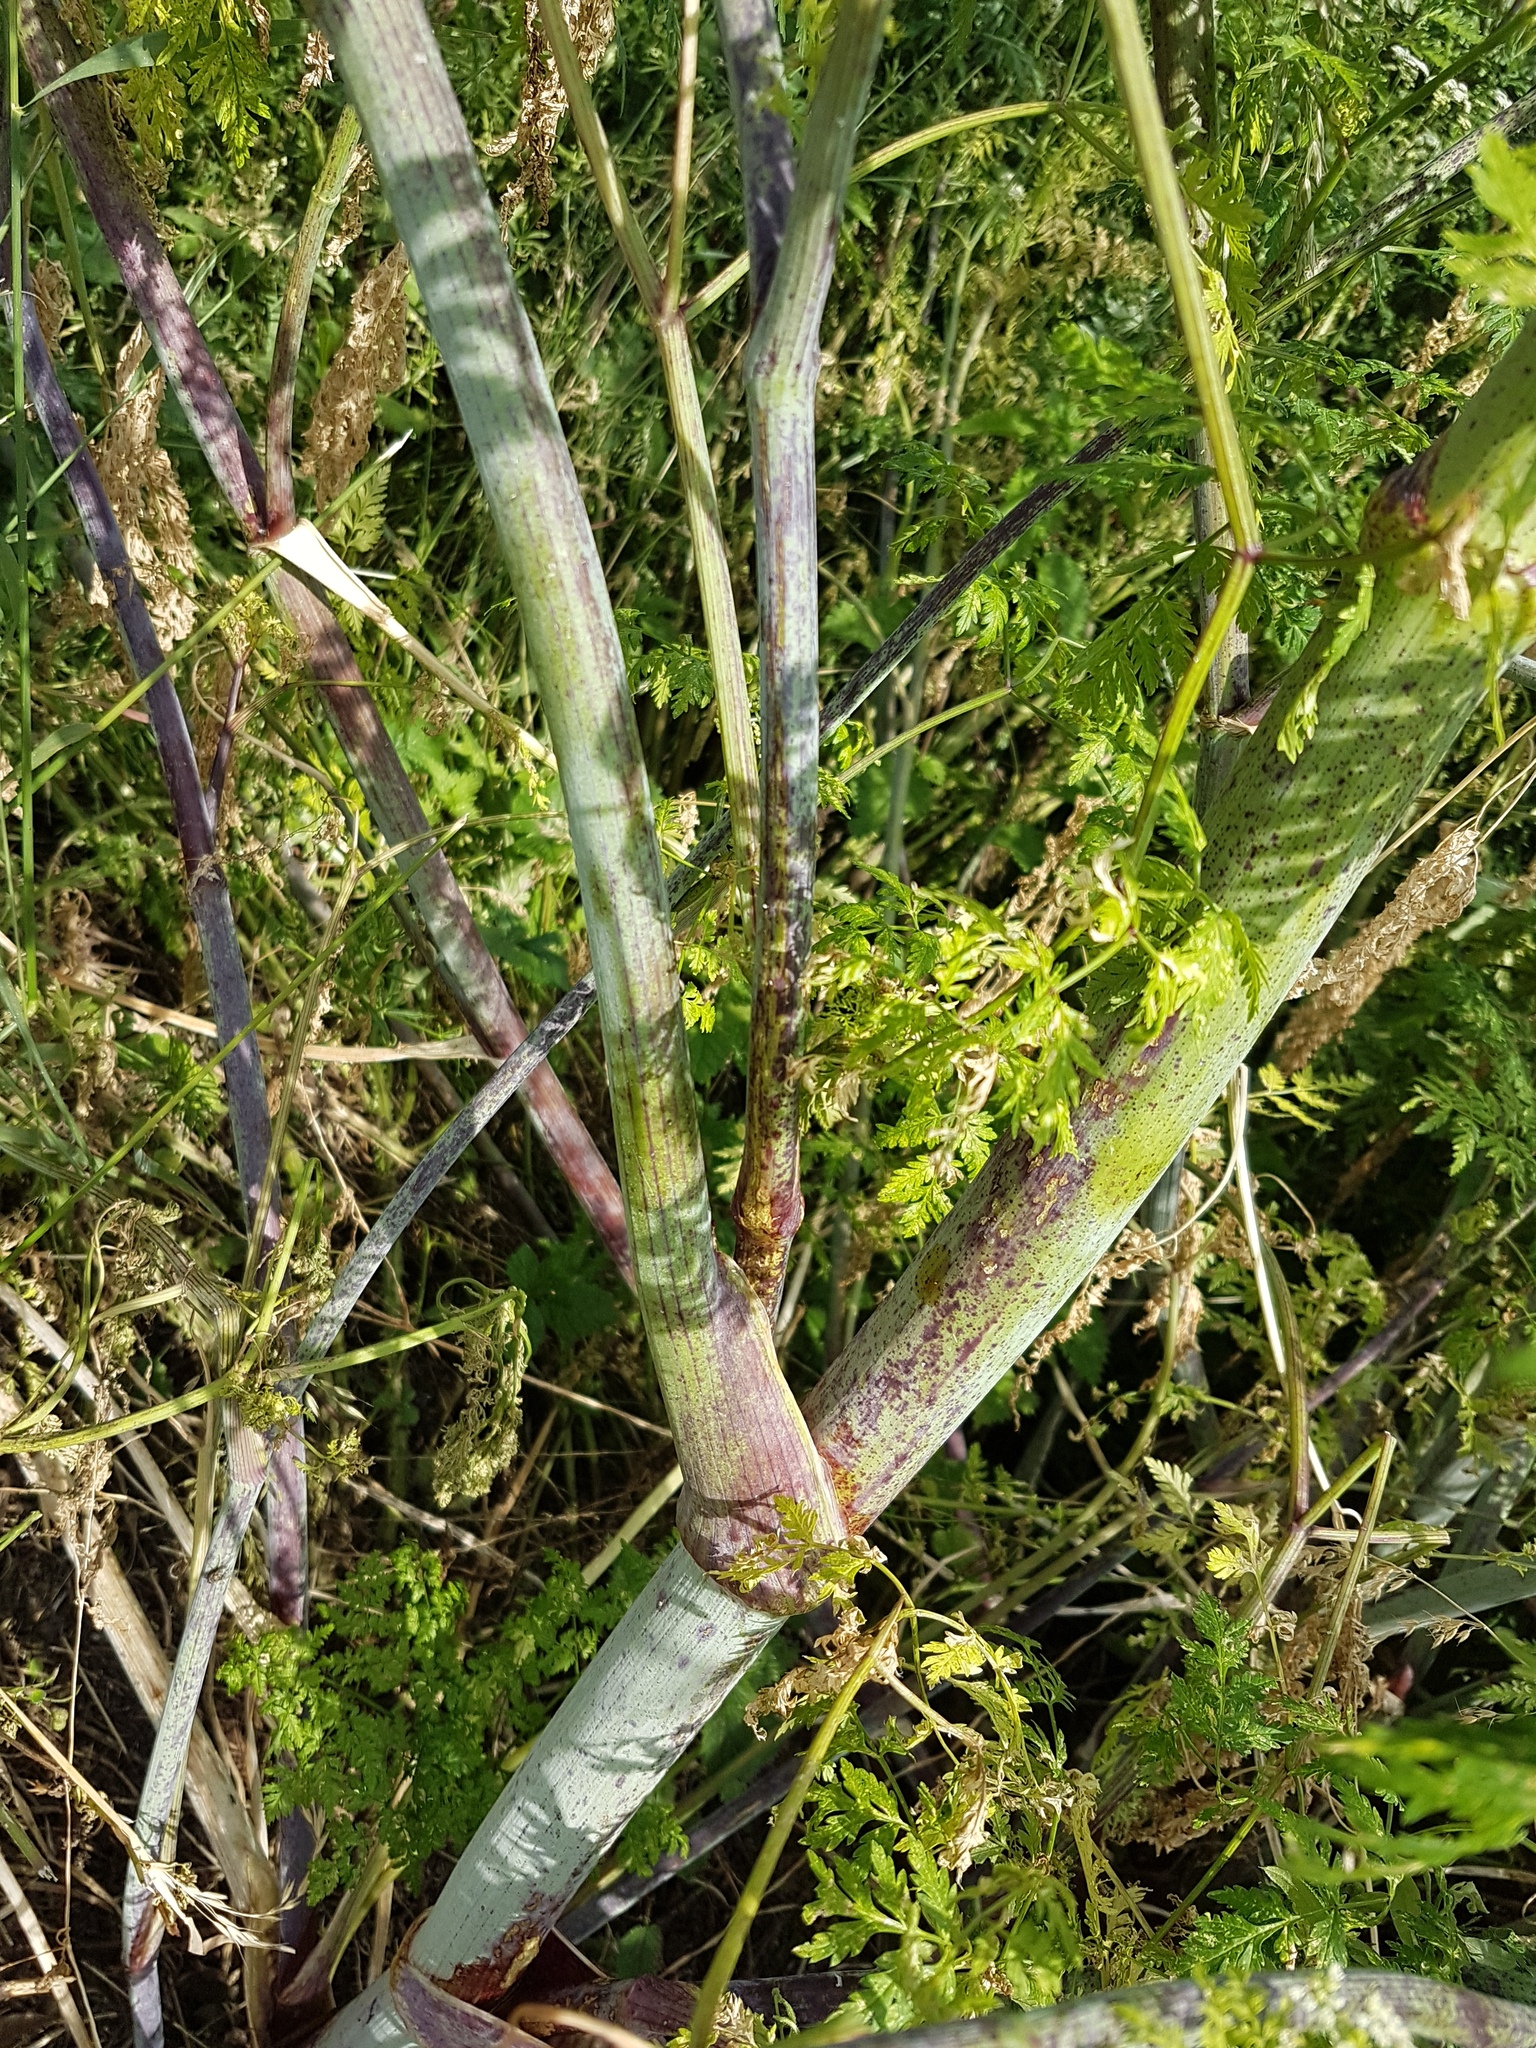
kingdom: Plantae
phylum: Tracheophyta
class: Magnoliopsida
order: Apiales
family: Apiaceae
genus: Conium
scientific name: Conium maculatum
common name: Hemlock
